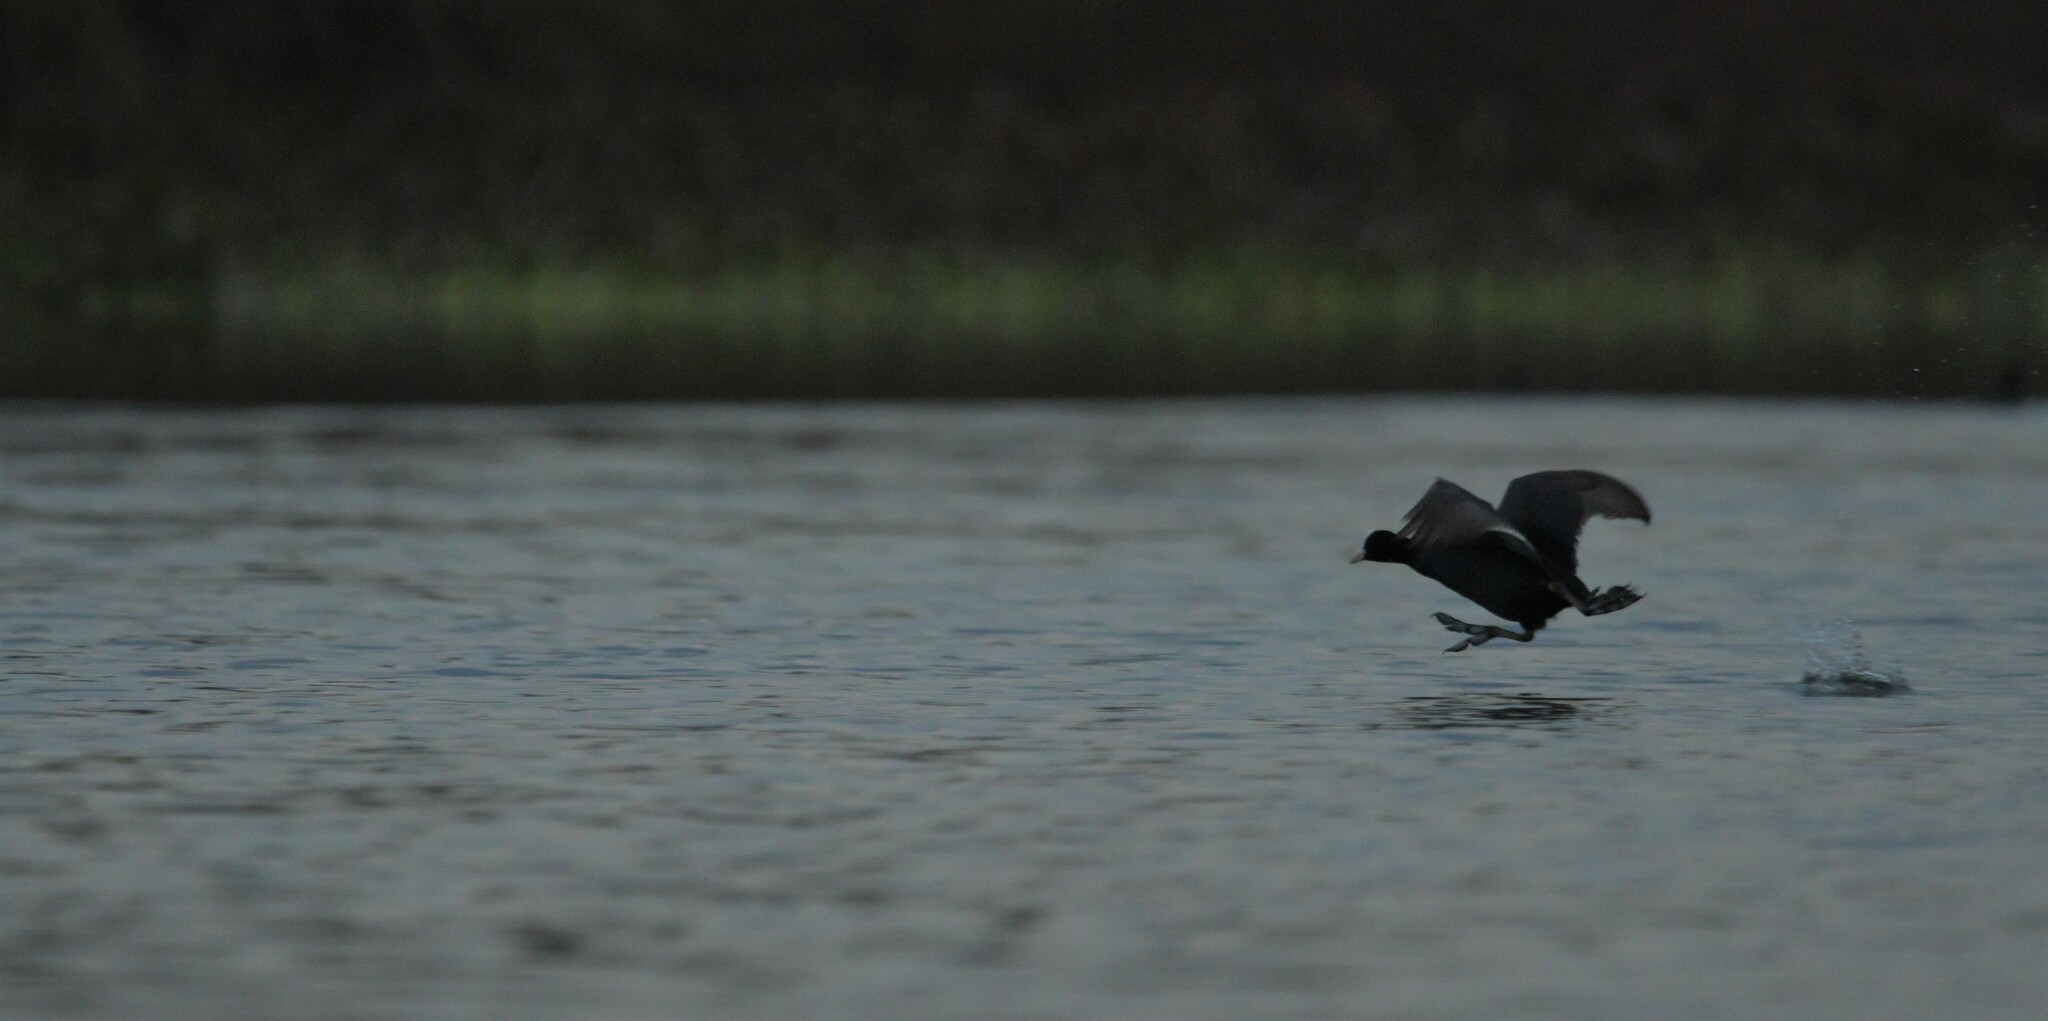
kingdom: Animalia
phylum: Chordata
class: Aves
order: Gruiformes
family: Rallidae
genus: Fulica
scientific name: Fulica atra
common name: Eurasian coot
